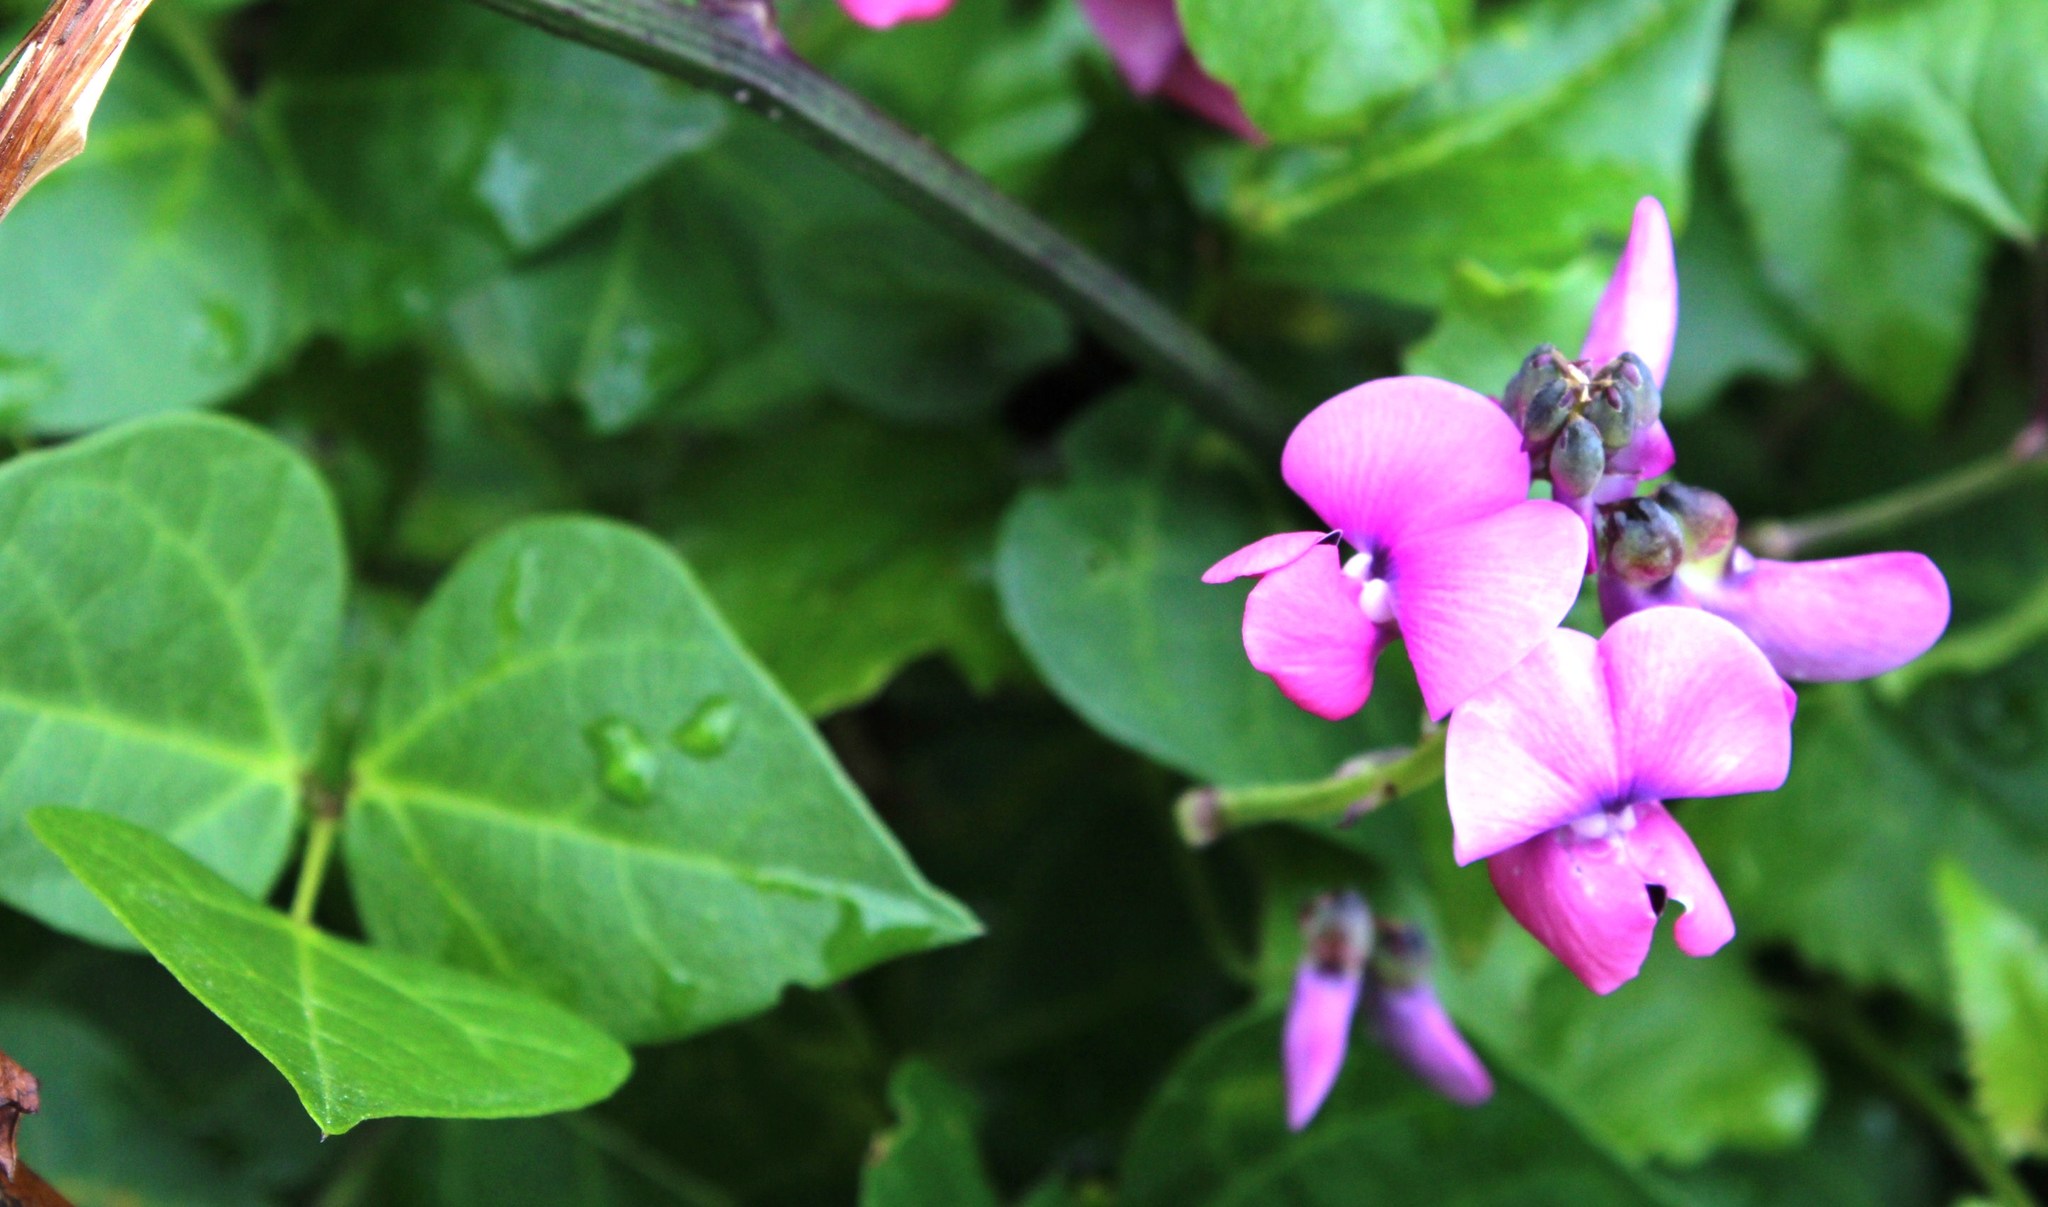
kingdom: Plantae
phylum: Tracheophyta
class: Magnoliopsida
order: Fabales
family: Fabaceae
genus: Dipogon
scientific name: Dipogon lignosus
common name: Okie bean
